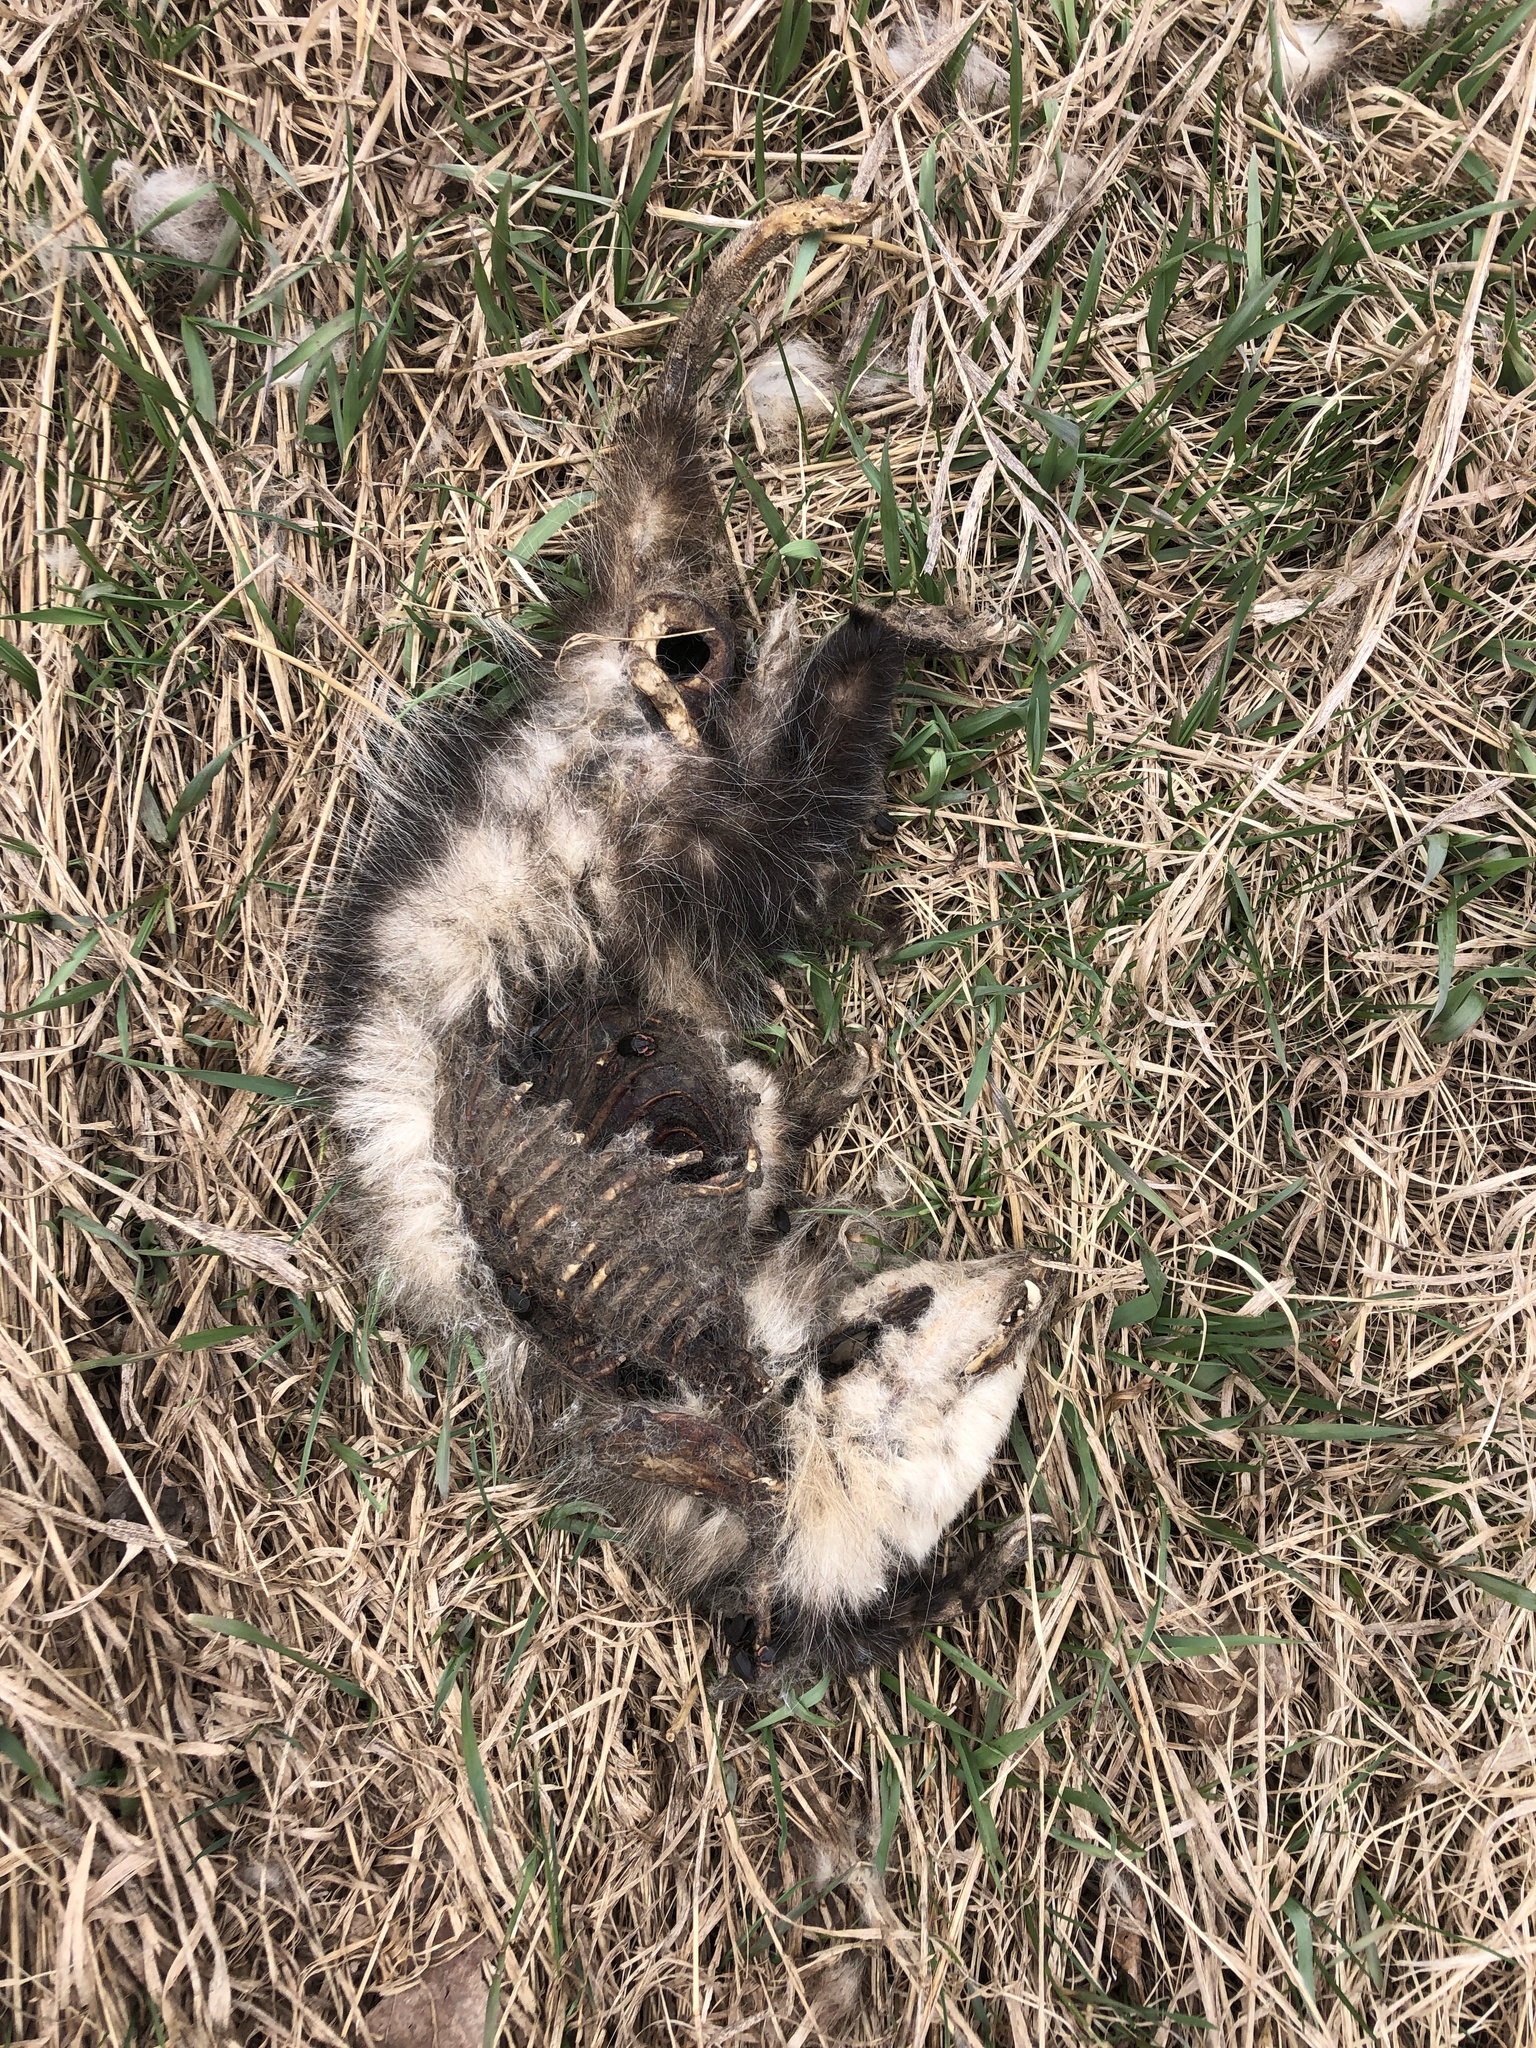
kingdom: Animalia
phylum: Chordata
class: Mammalia
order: Didelphimorphia
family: Didelphidae
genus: Didelphis
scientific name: Didelphis virginiana
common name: Virginia opossum
